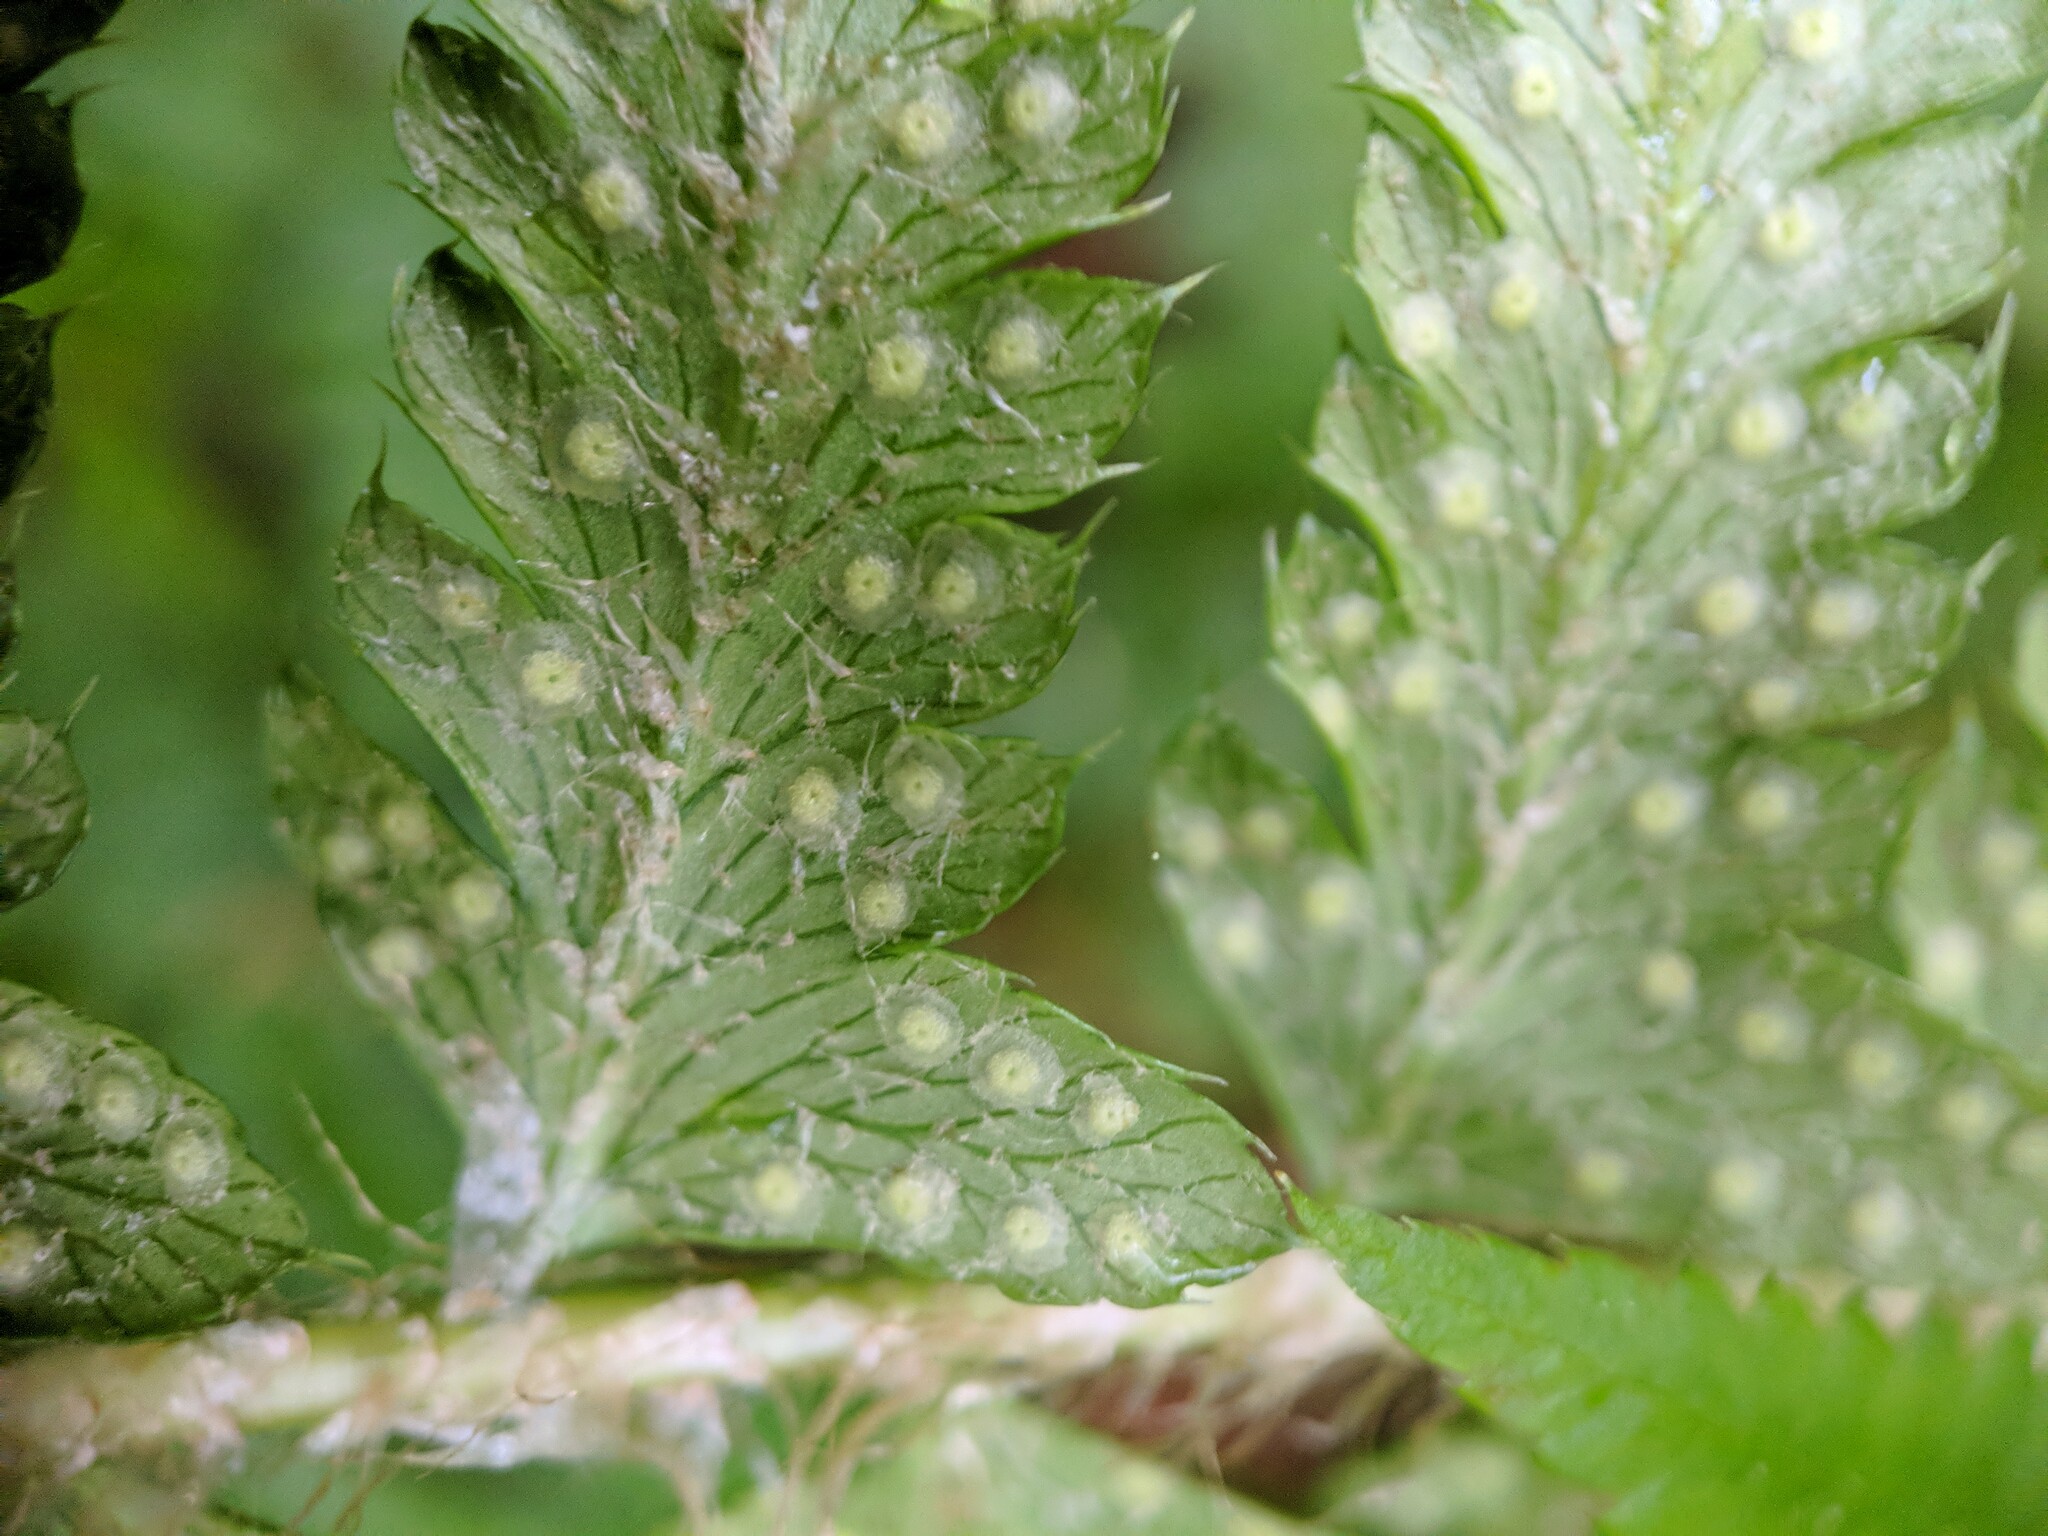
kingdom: Plantae
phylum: Tracheophyta
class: Polypodiopsida
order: Polypodiales
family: Dryopteridaceae
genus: Polystichum
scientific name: Polystichum
